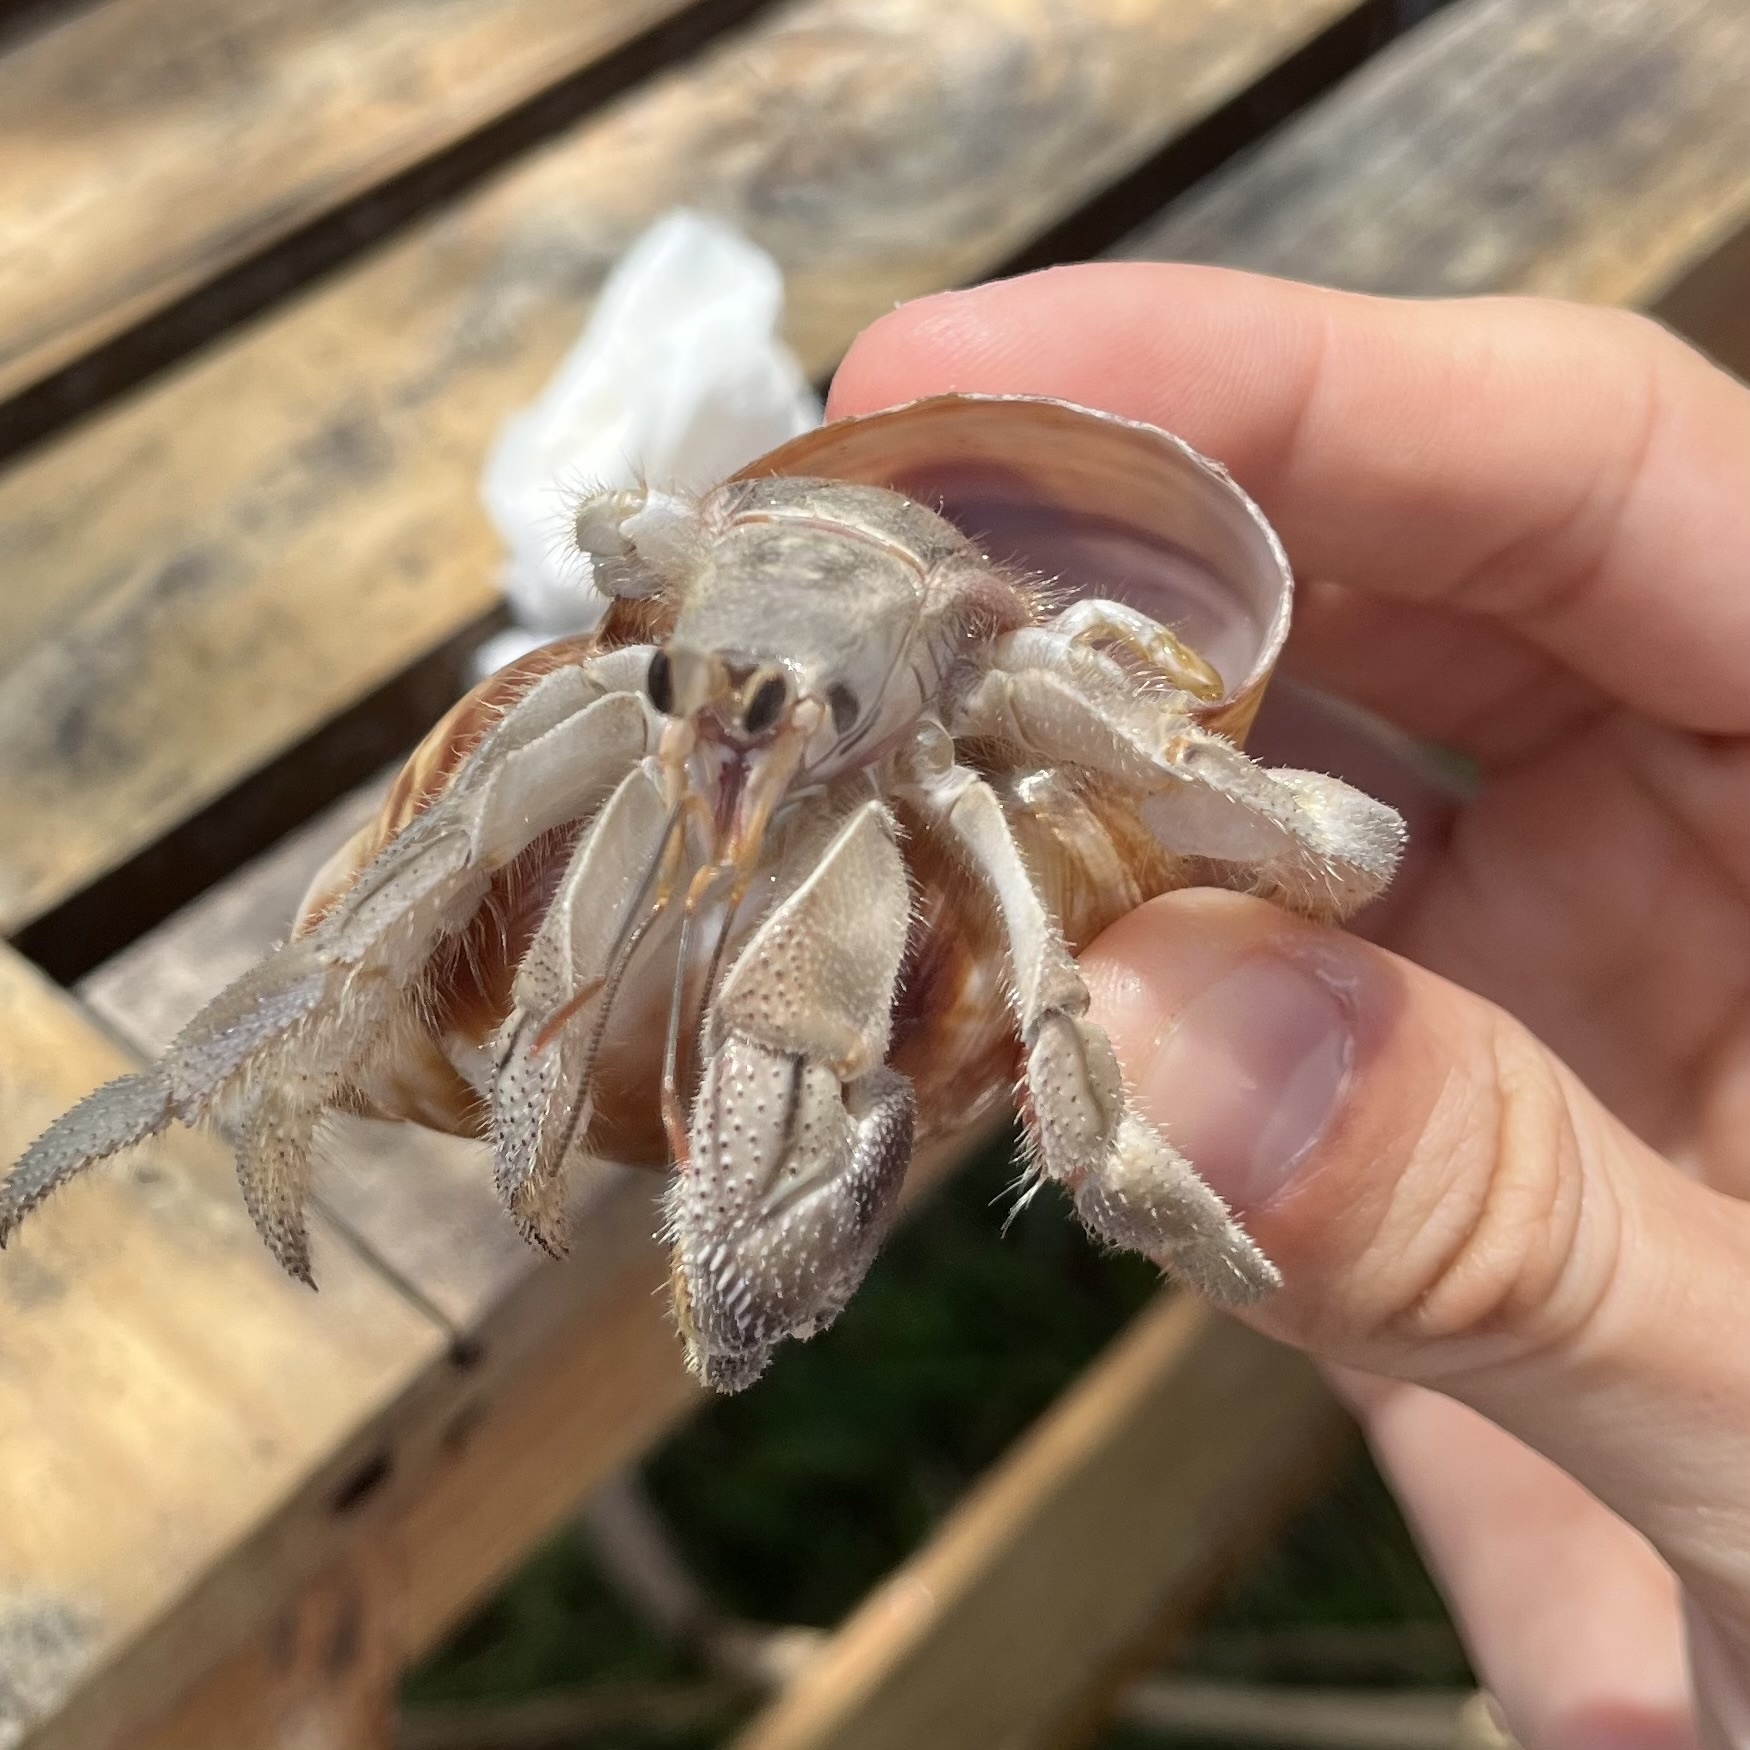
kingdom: Animalia
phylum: Arthropoda
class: Malacostraca
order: Decapoda
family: Coenobitidae
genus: Coenobita
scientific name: Coenobita rugosus
